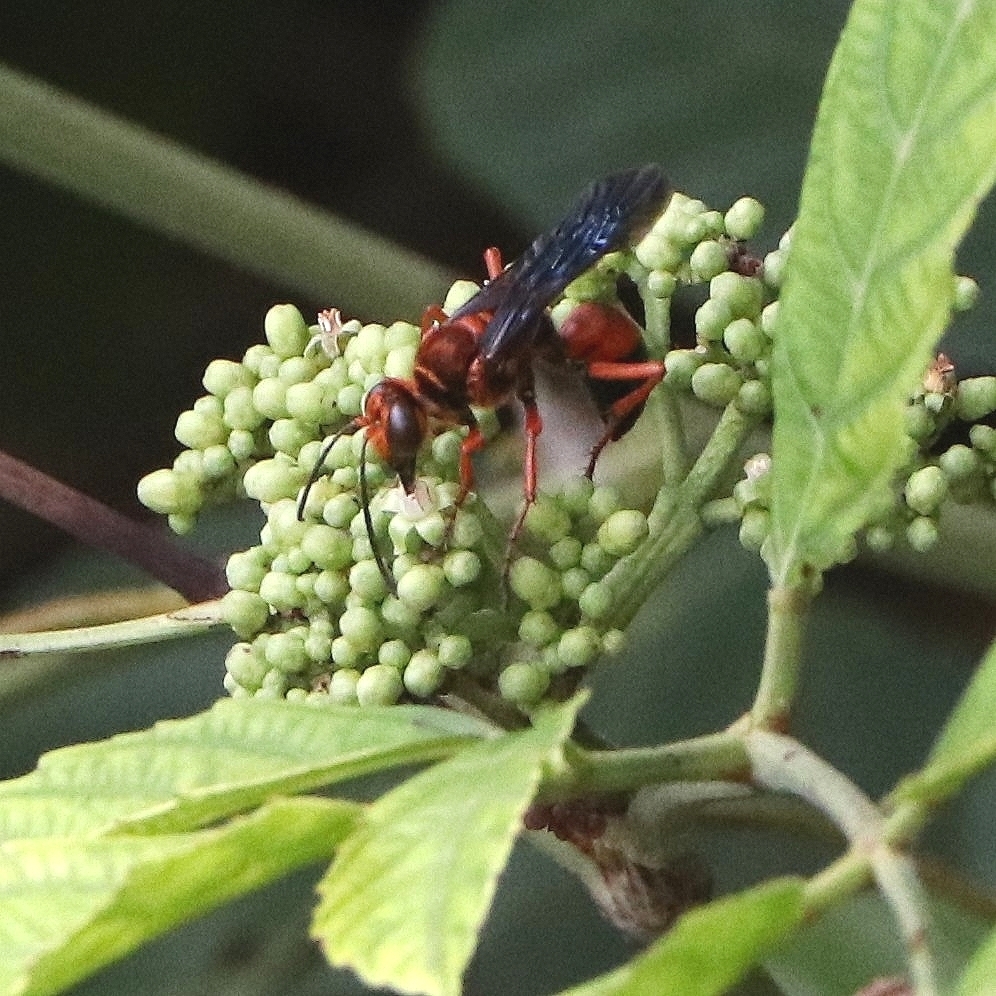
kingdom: Animalia
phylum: Arthropoda
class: Insecta
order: Hymenoptera
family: Sphecidae
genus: Sphex
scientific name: Sphex sericeus
